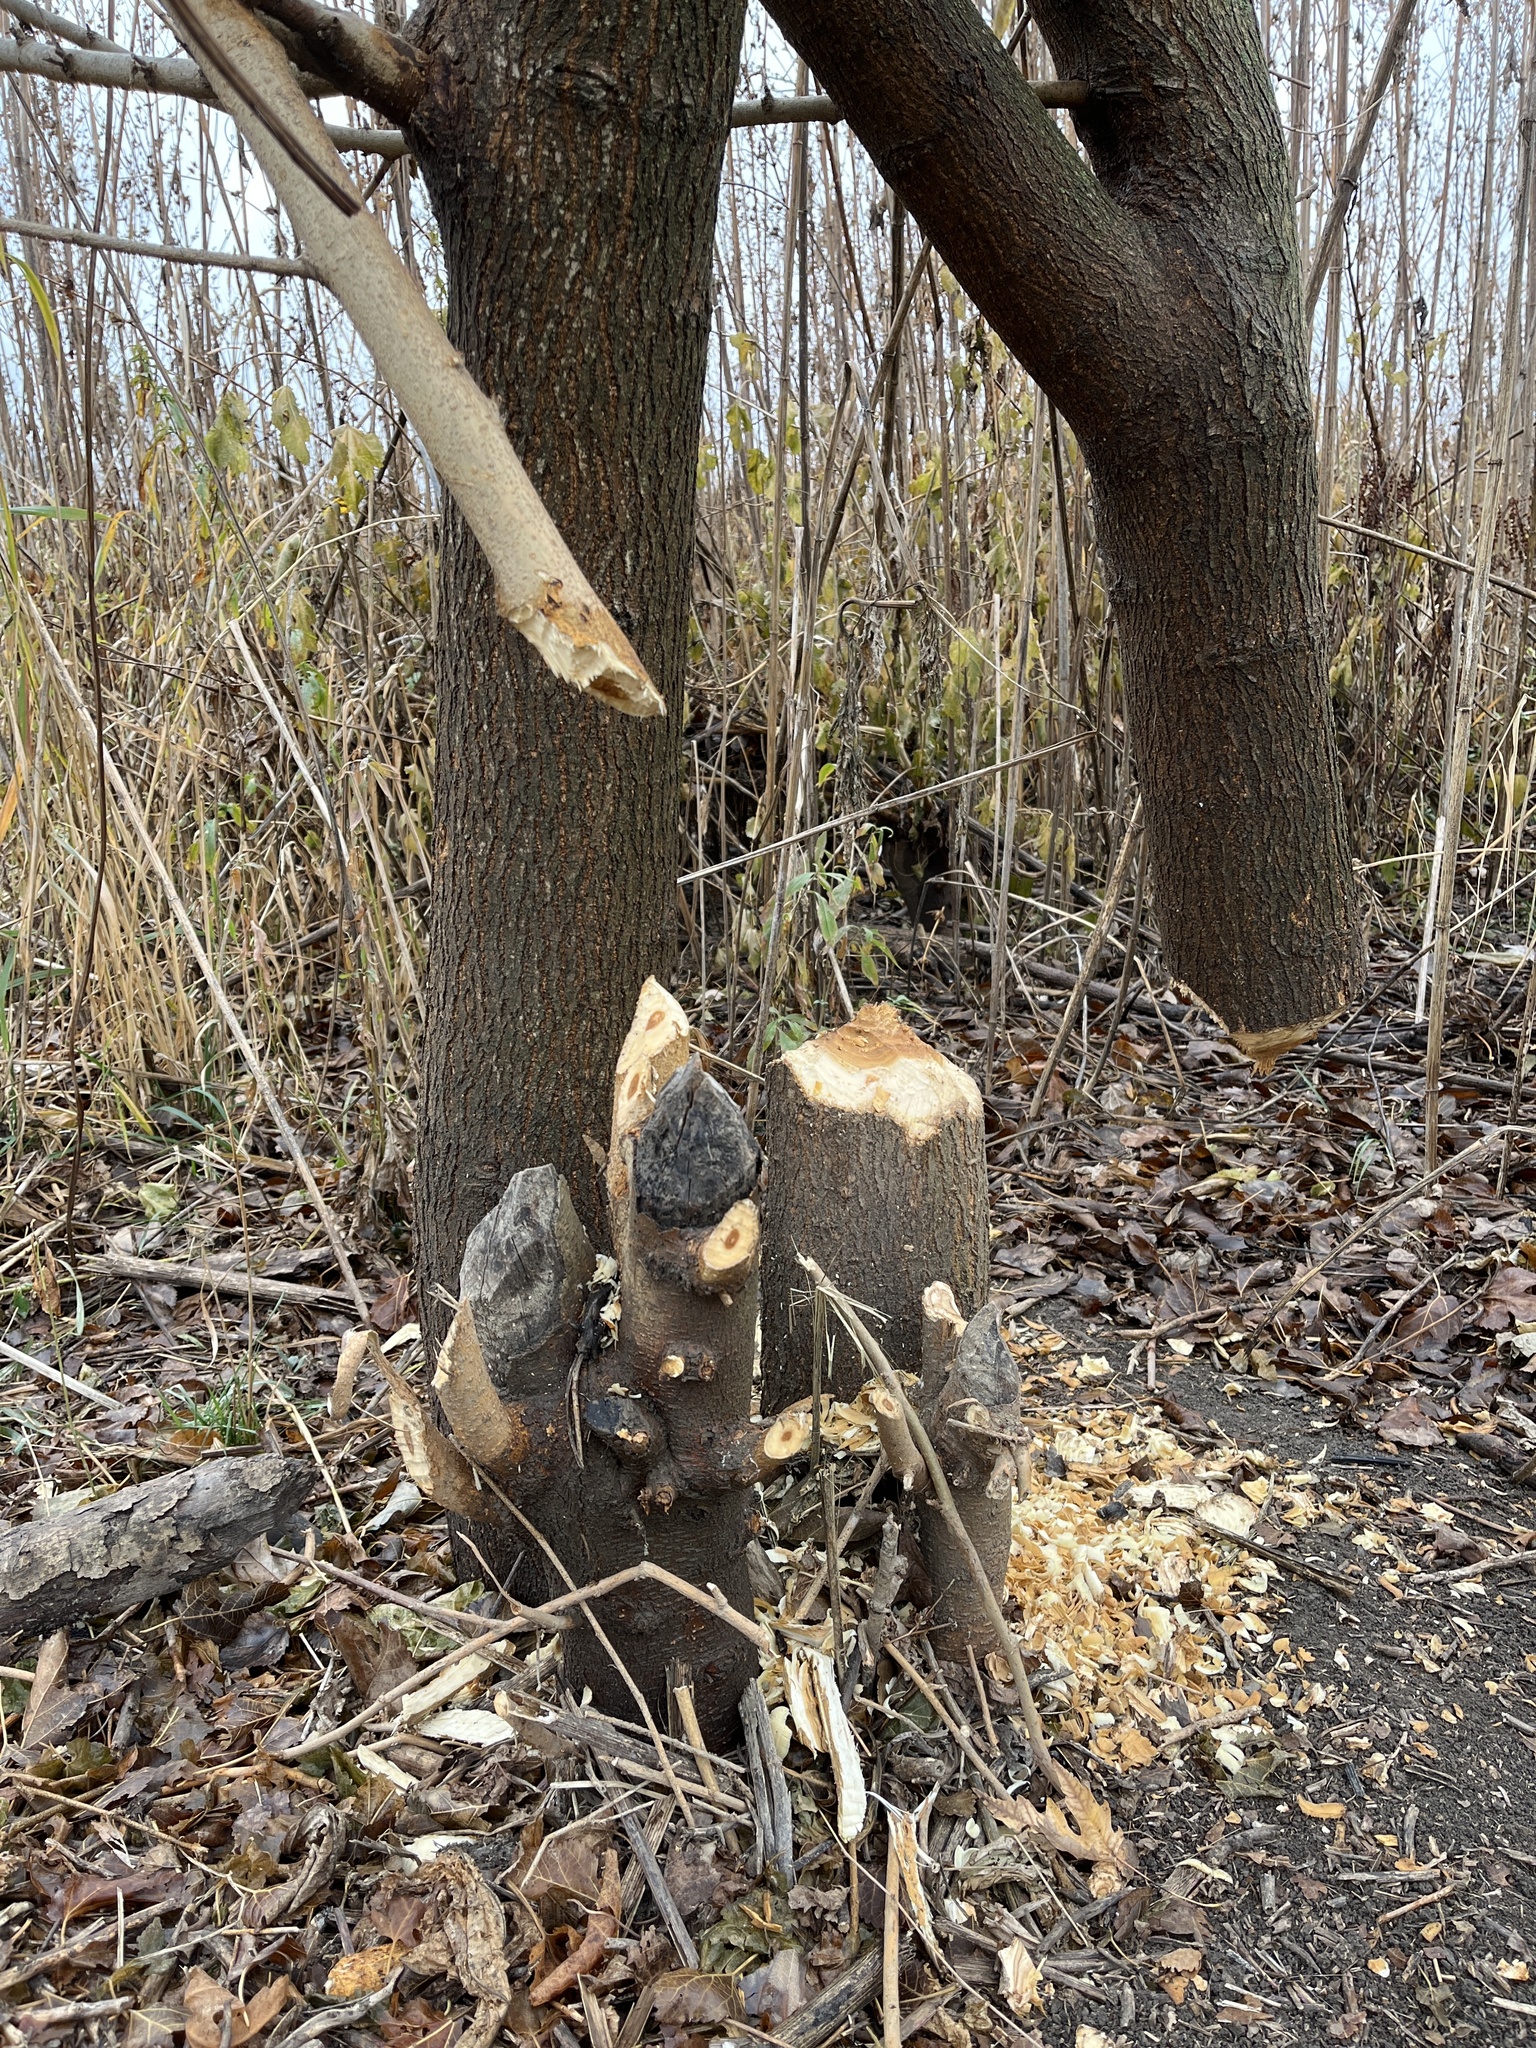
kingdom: Animalia
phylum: Chordata
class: Mammalia
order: Rodentia
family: Castoridae
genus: Castor
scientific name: Castor canadensis
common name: American beaver
